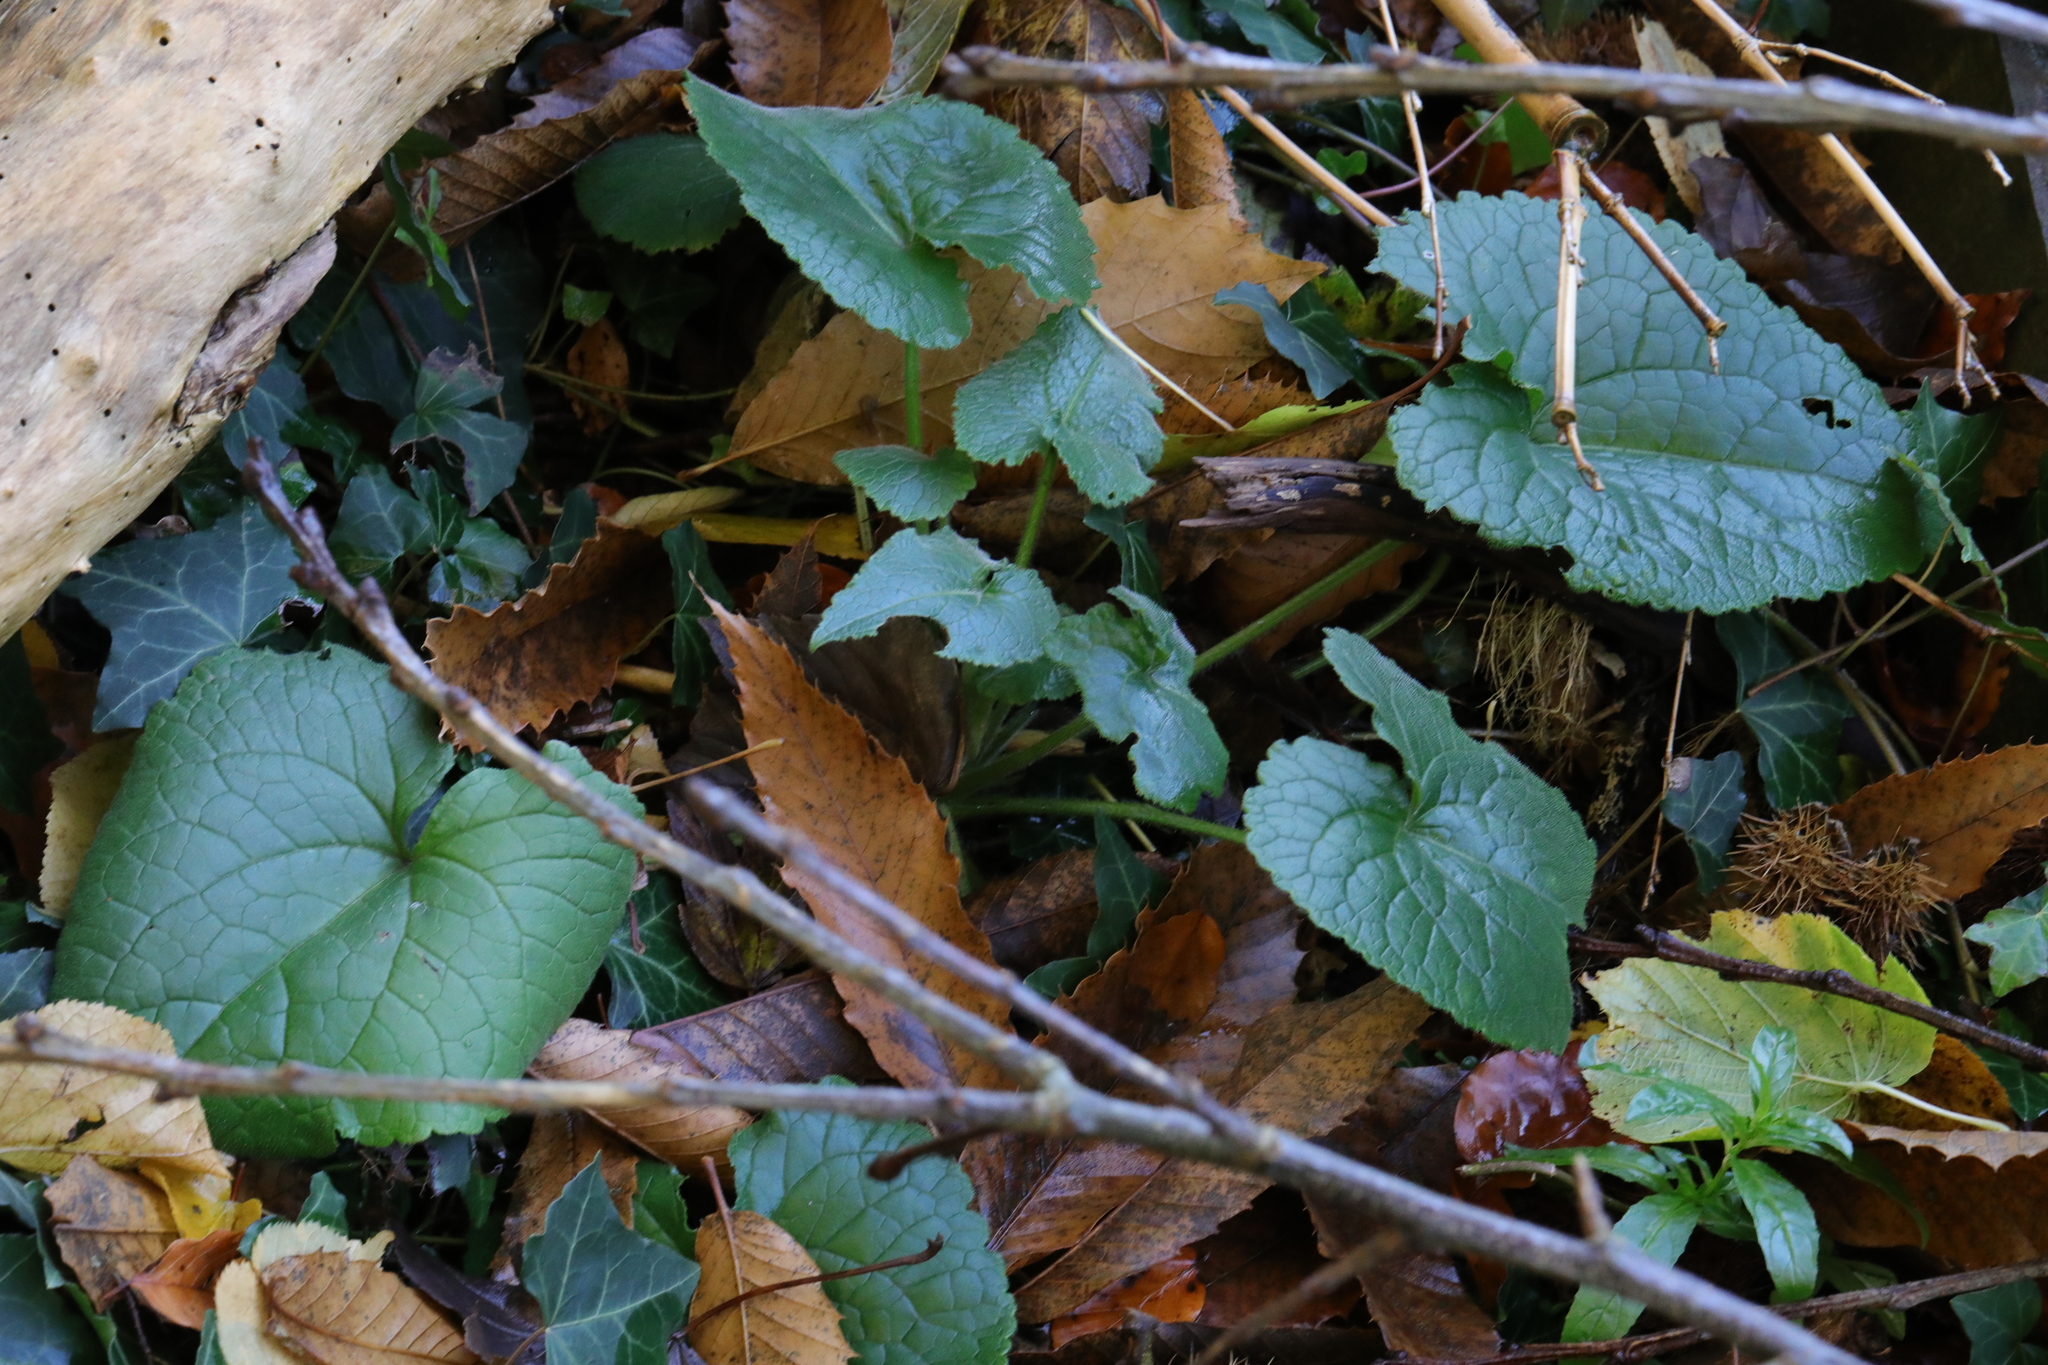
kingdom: Plantae
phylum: Tracheophyta
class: Magnoliopsida
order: Brassicales
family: Brassicaceae
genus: Alliaria
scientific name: Alliaria petiolata
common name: Garlic mustard
